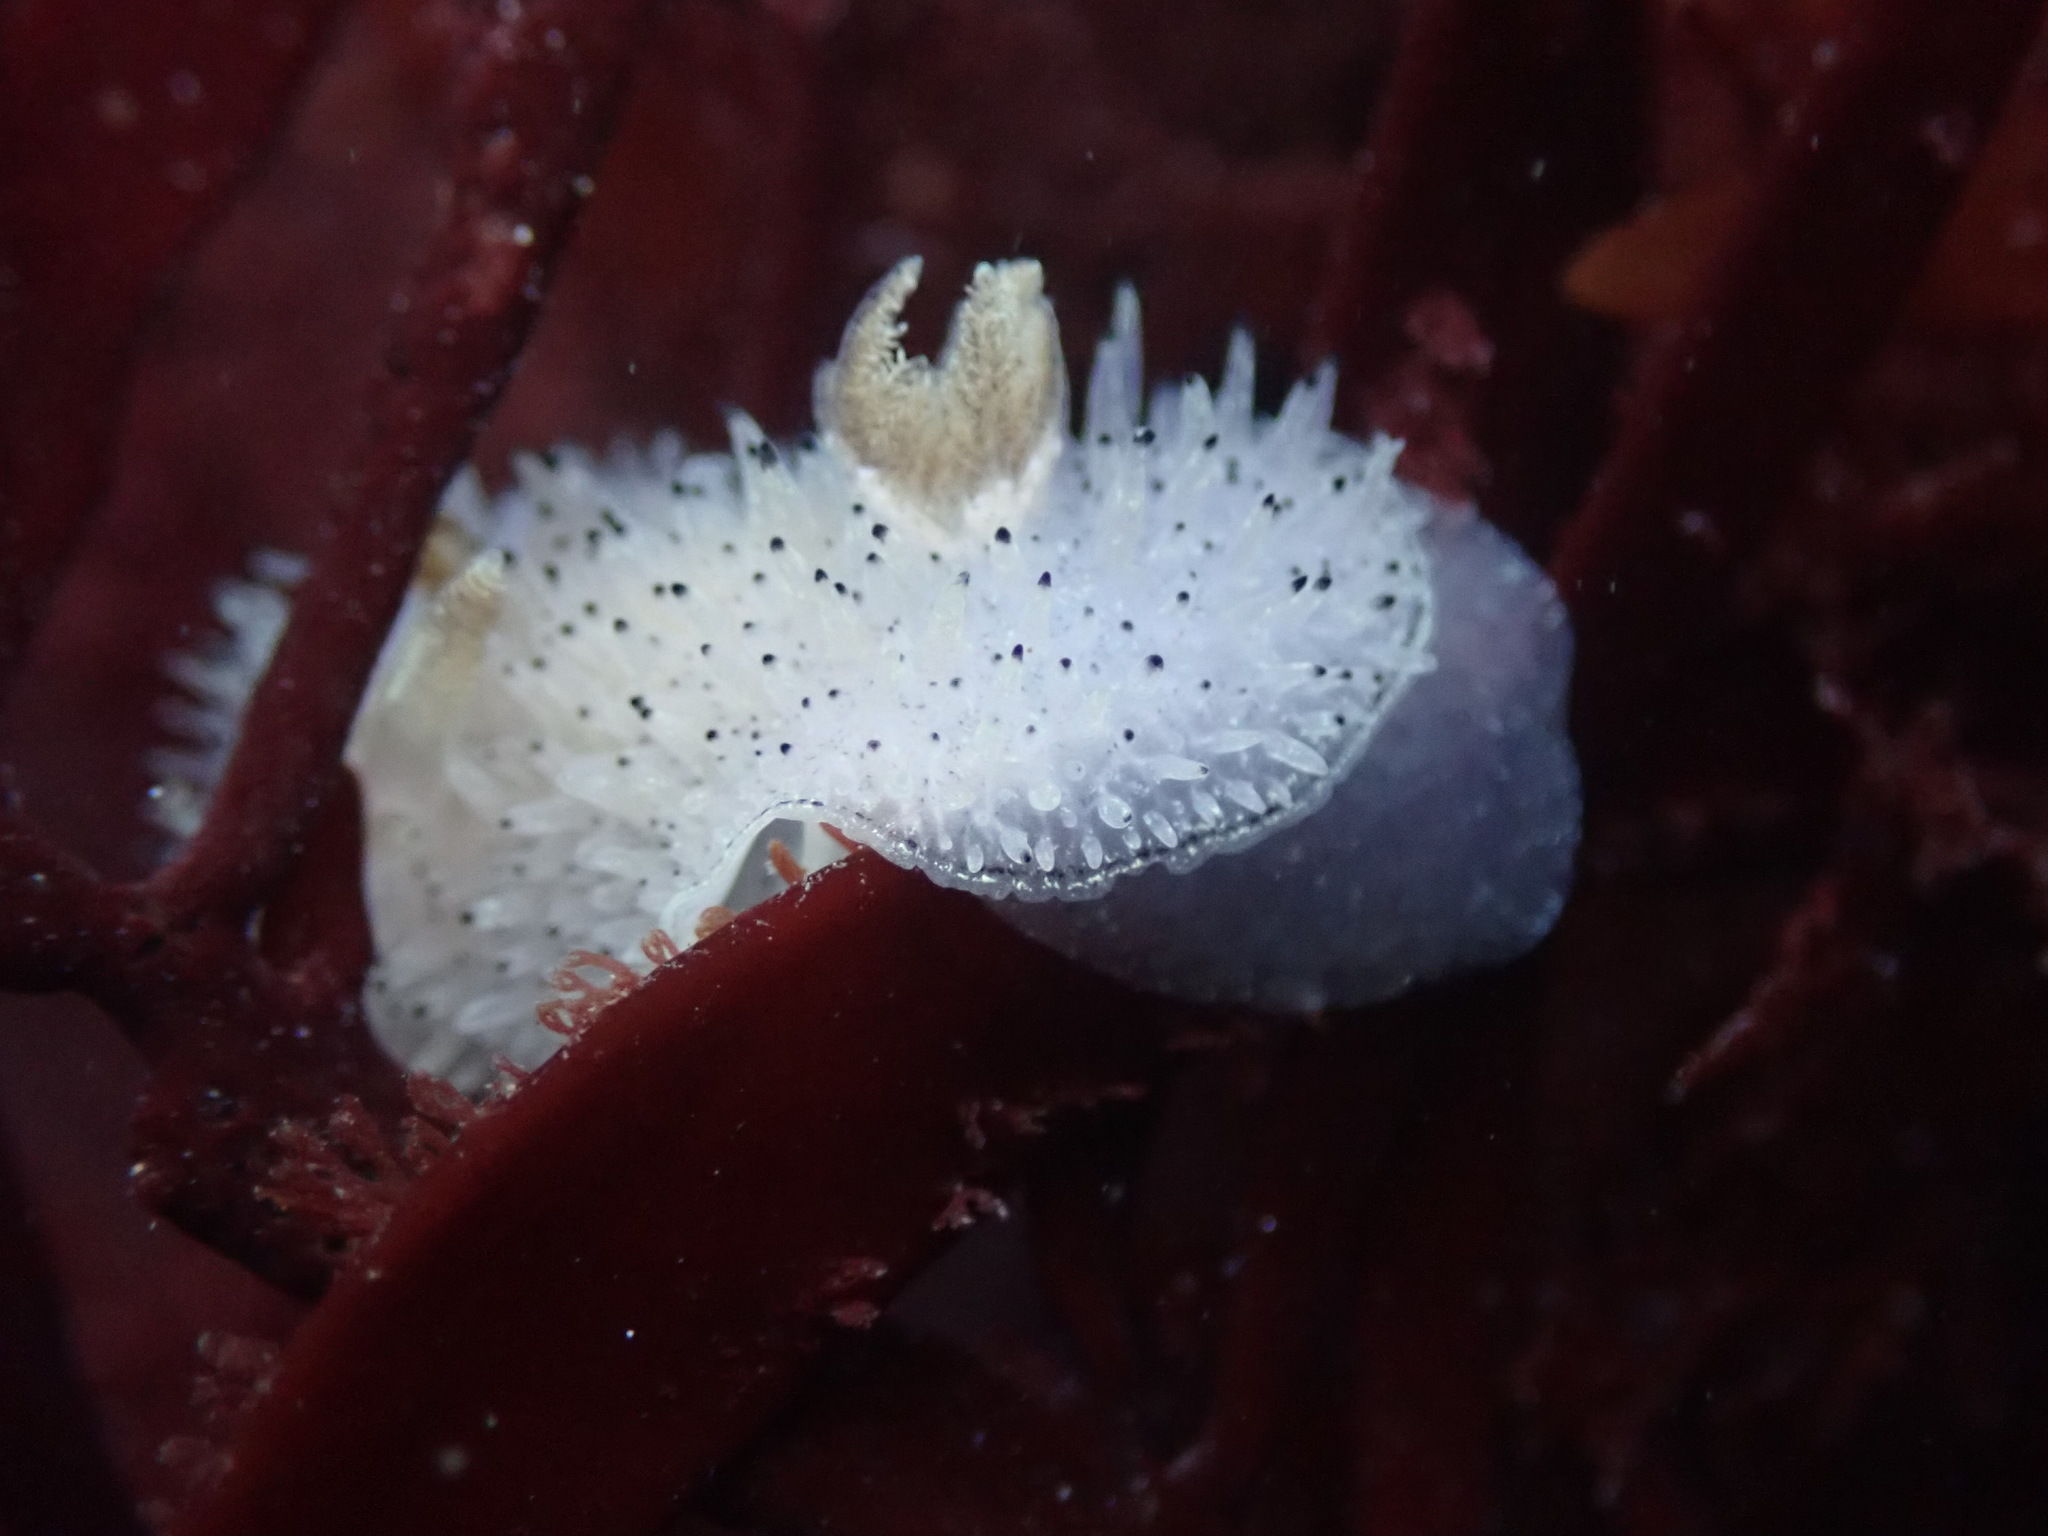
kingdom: Animalia
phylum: Mollusca
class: Gastropoda
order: Nudibranchia
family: Onchidorididae
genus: Acanthodoris
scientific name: Acanthodoris rhodoceras
